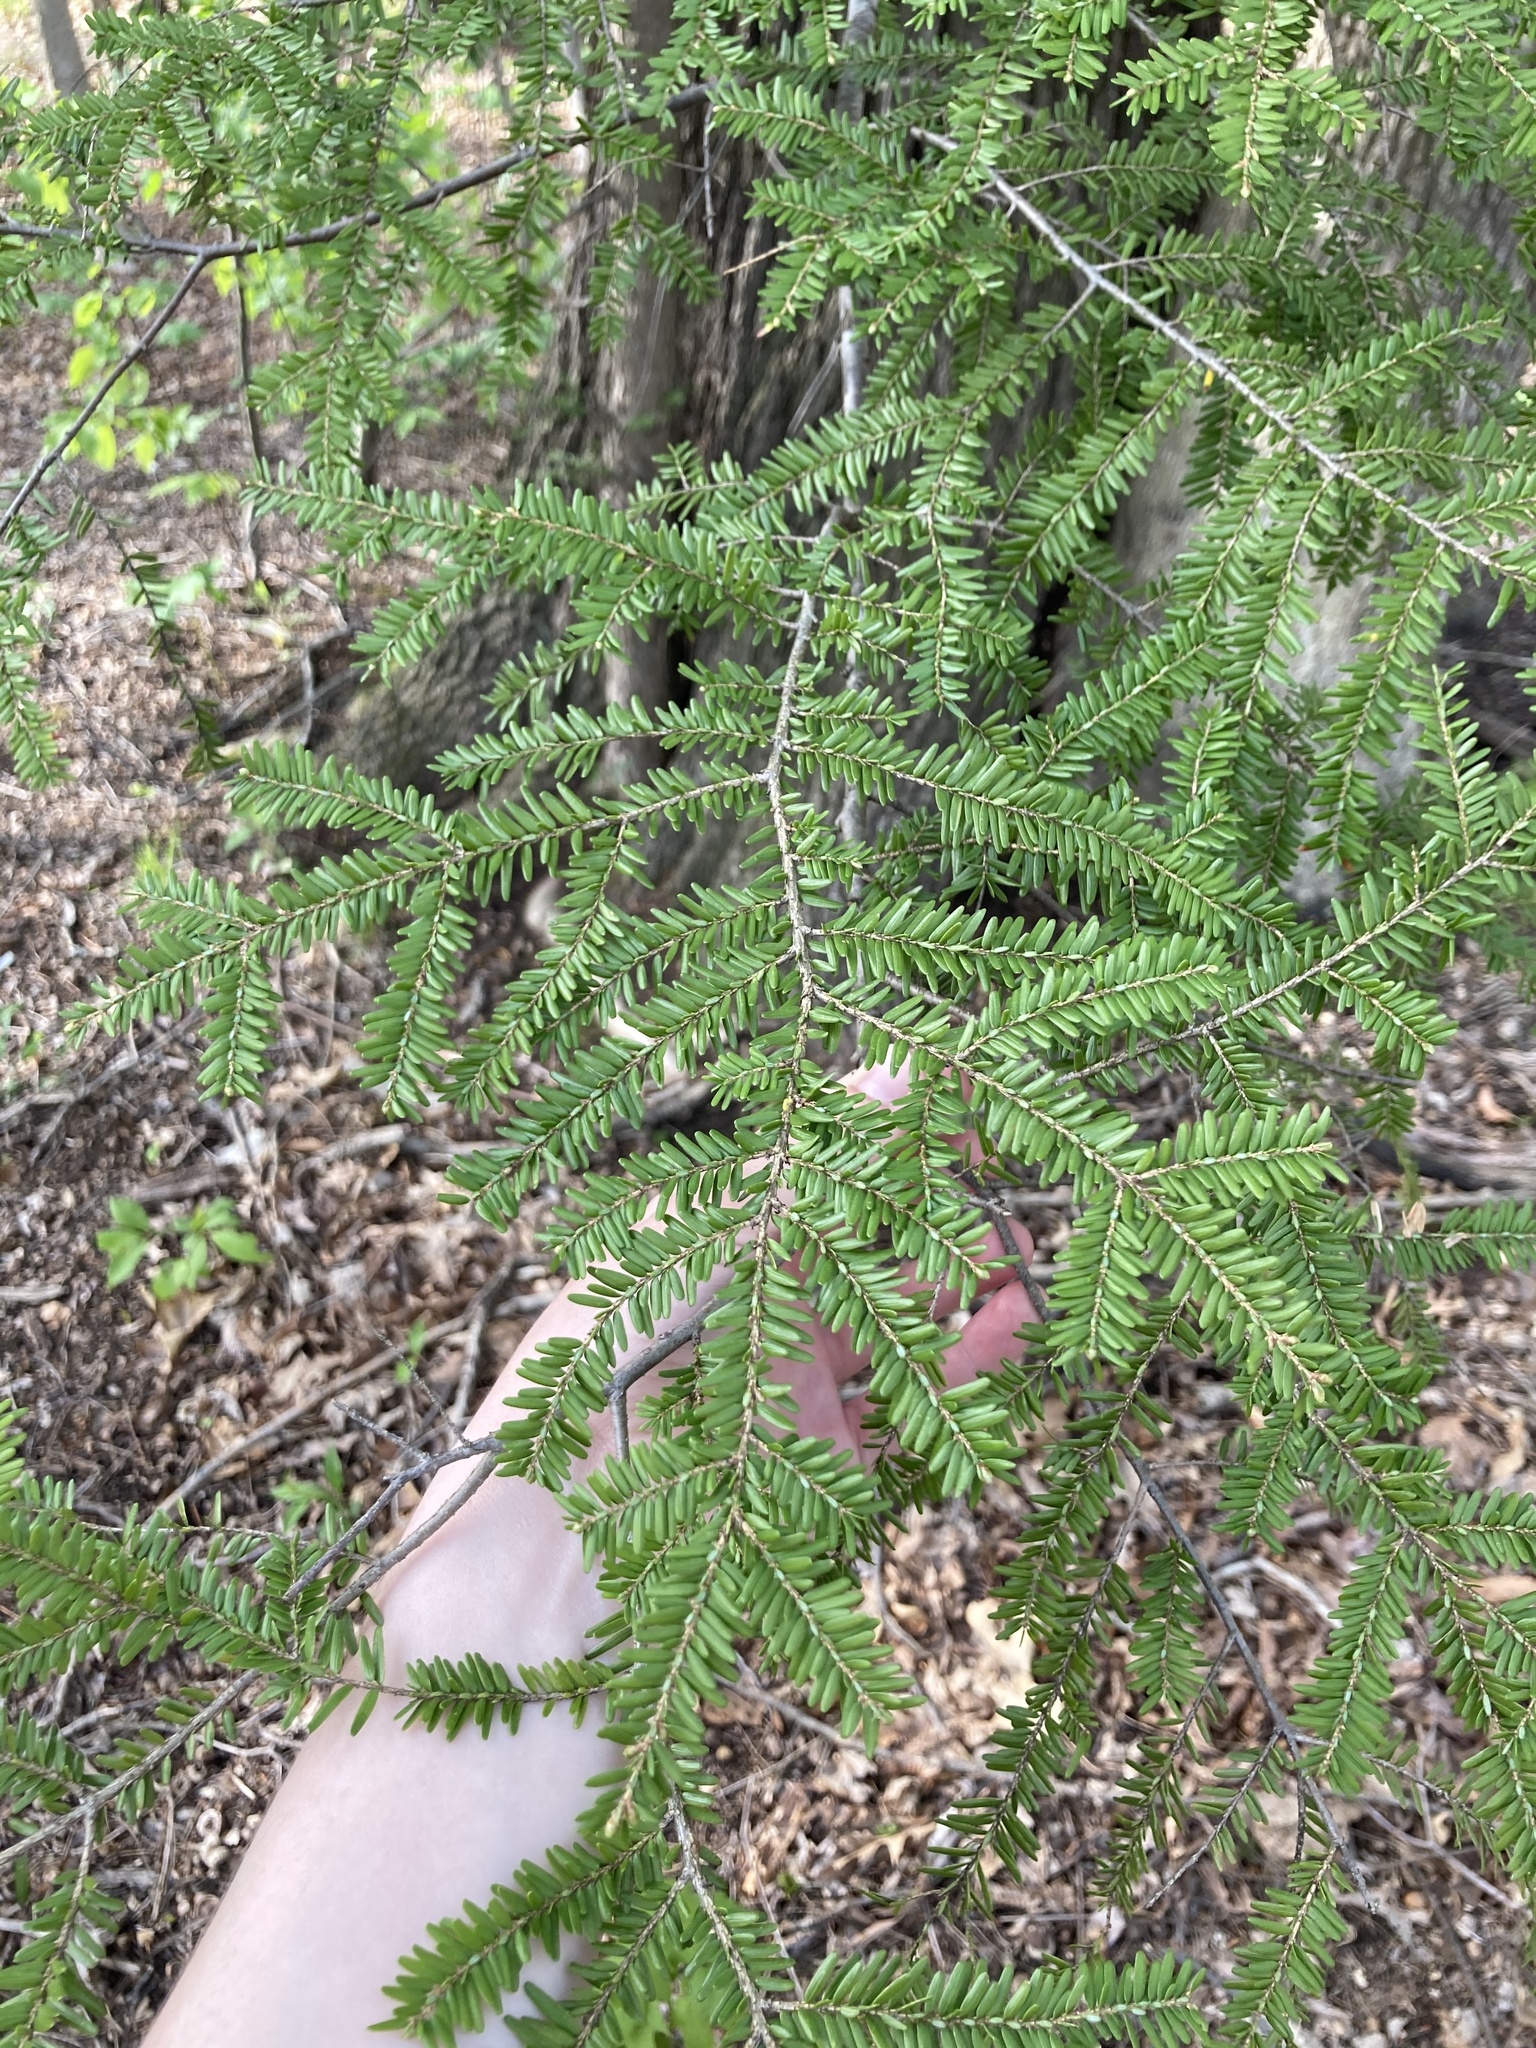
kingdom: Plantae
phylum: Tracheophyta
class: Pinopsida
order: Pinales
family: Pinaceae
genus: Tsuga
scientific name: Tsuga canadensis
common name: Eastern hemlock
